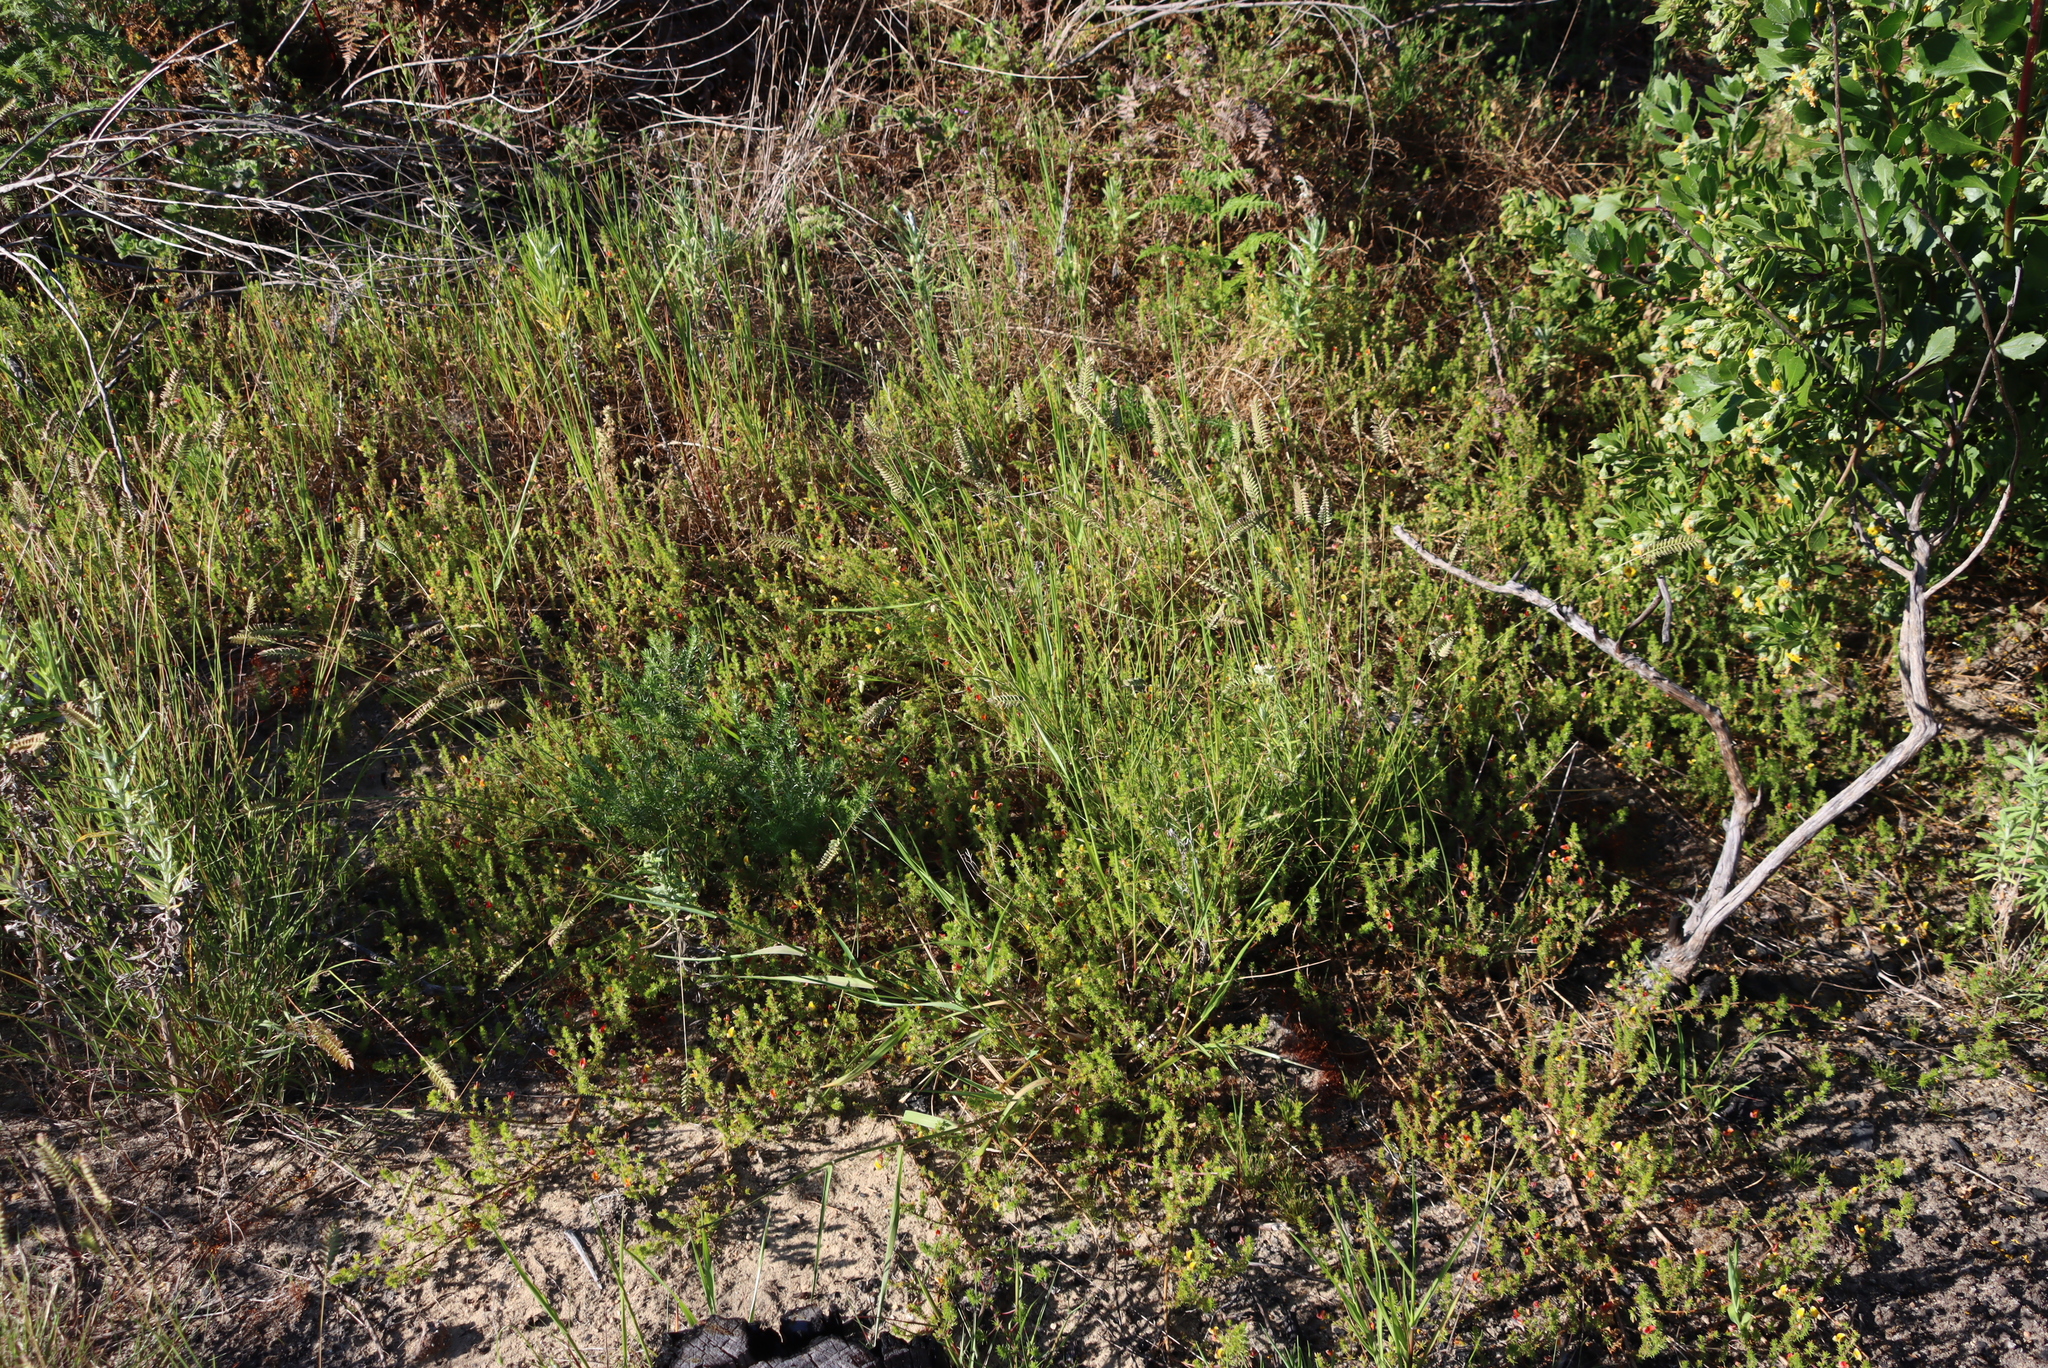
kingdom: Plantae
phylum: Tracheophyta
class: Liliopsida
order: Poales
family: Poaceae
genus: Tribolium
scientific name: Tribolium uniolae
